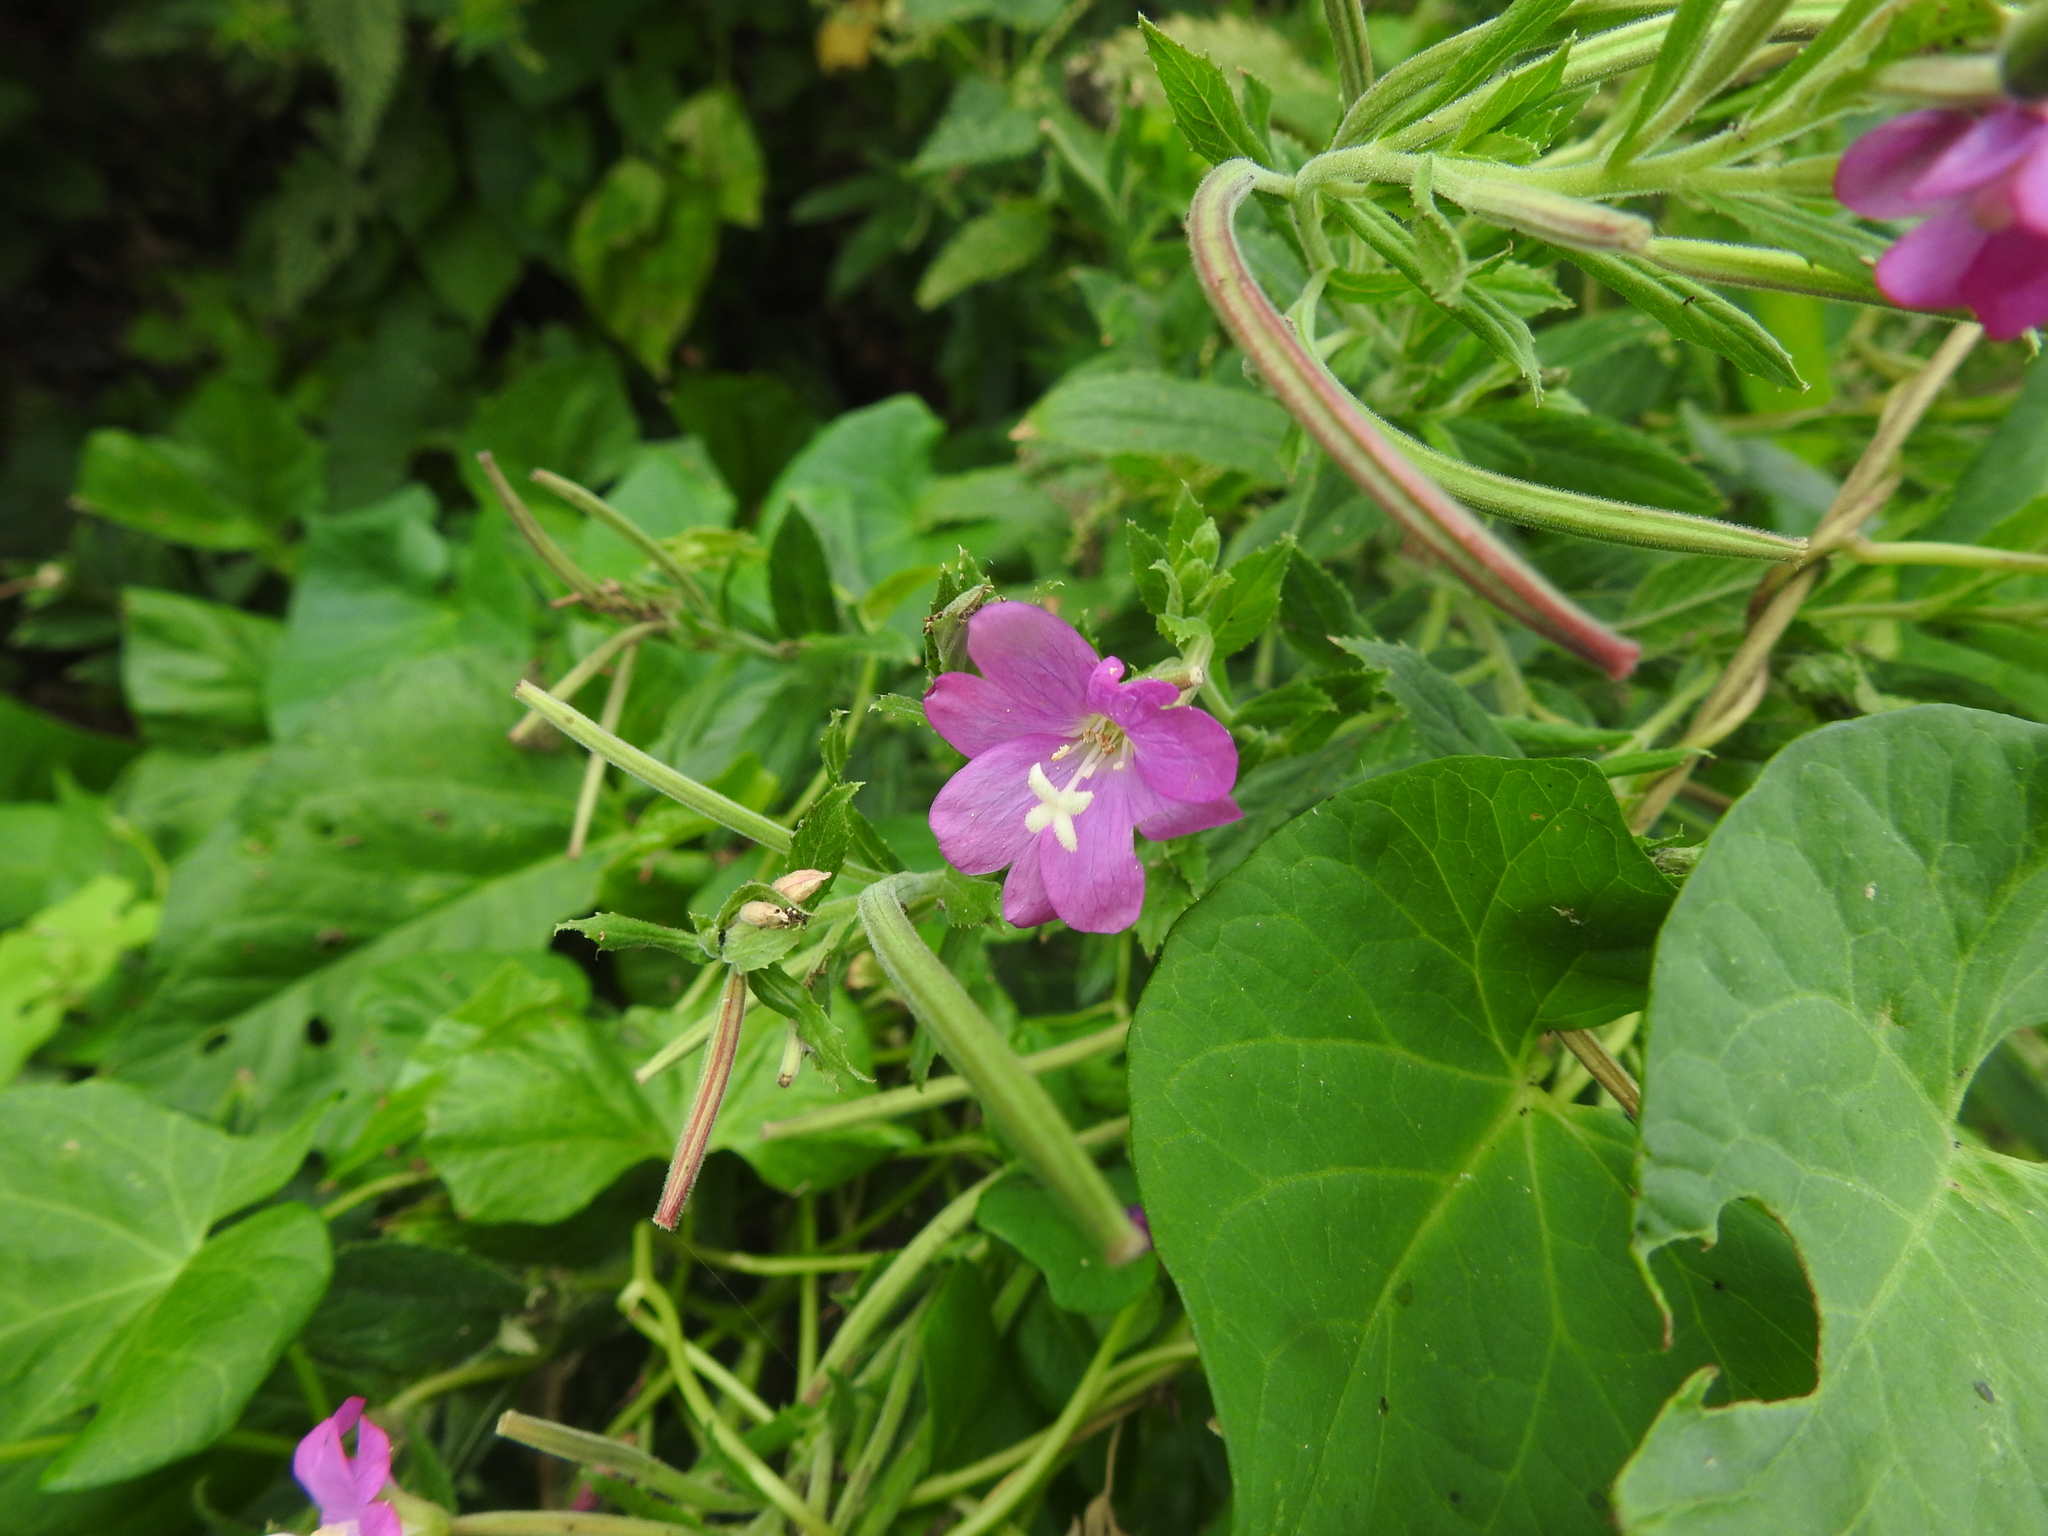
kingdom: Plantae
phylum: Tracheophyta
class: Magnoliopsida
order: Myrtales
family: Onagraceae
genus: Epilobium
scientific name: Epilobium hirsutum
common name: Great willowherb
